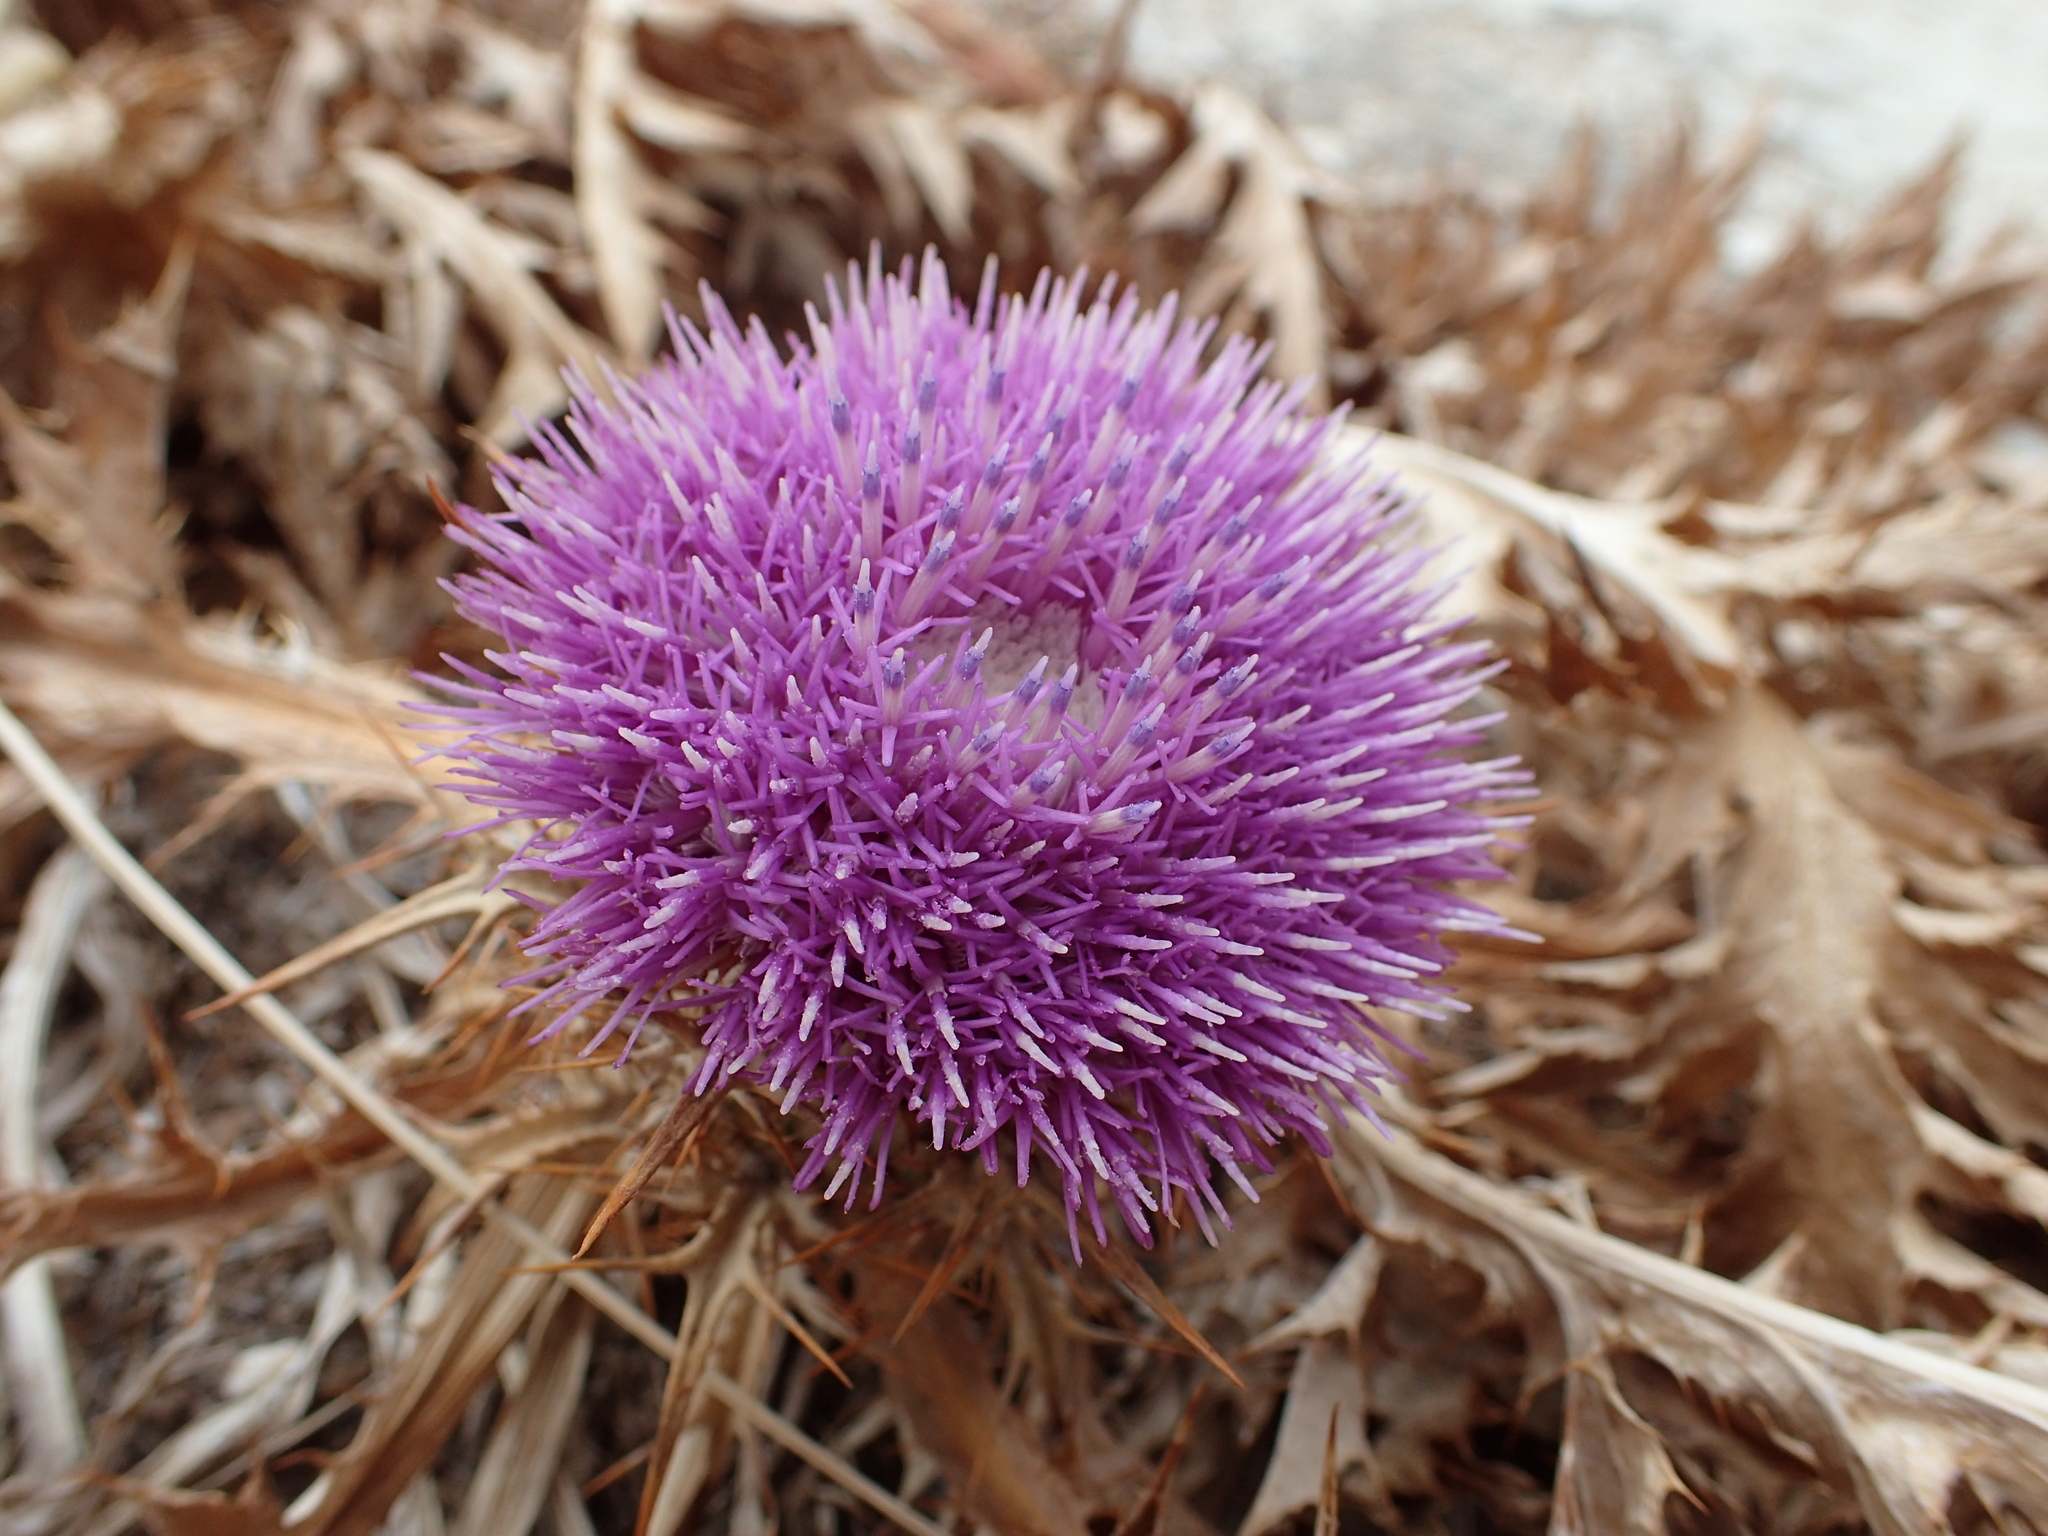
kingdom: Plantae
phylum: Tracheophyta
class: Magnoliopsida
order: Asterales
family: Asteraceae
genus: Chamaeleon
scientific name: Chamaeleon gummifer
